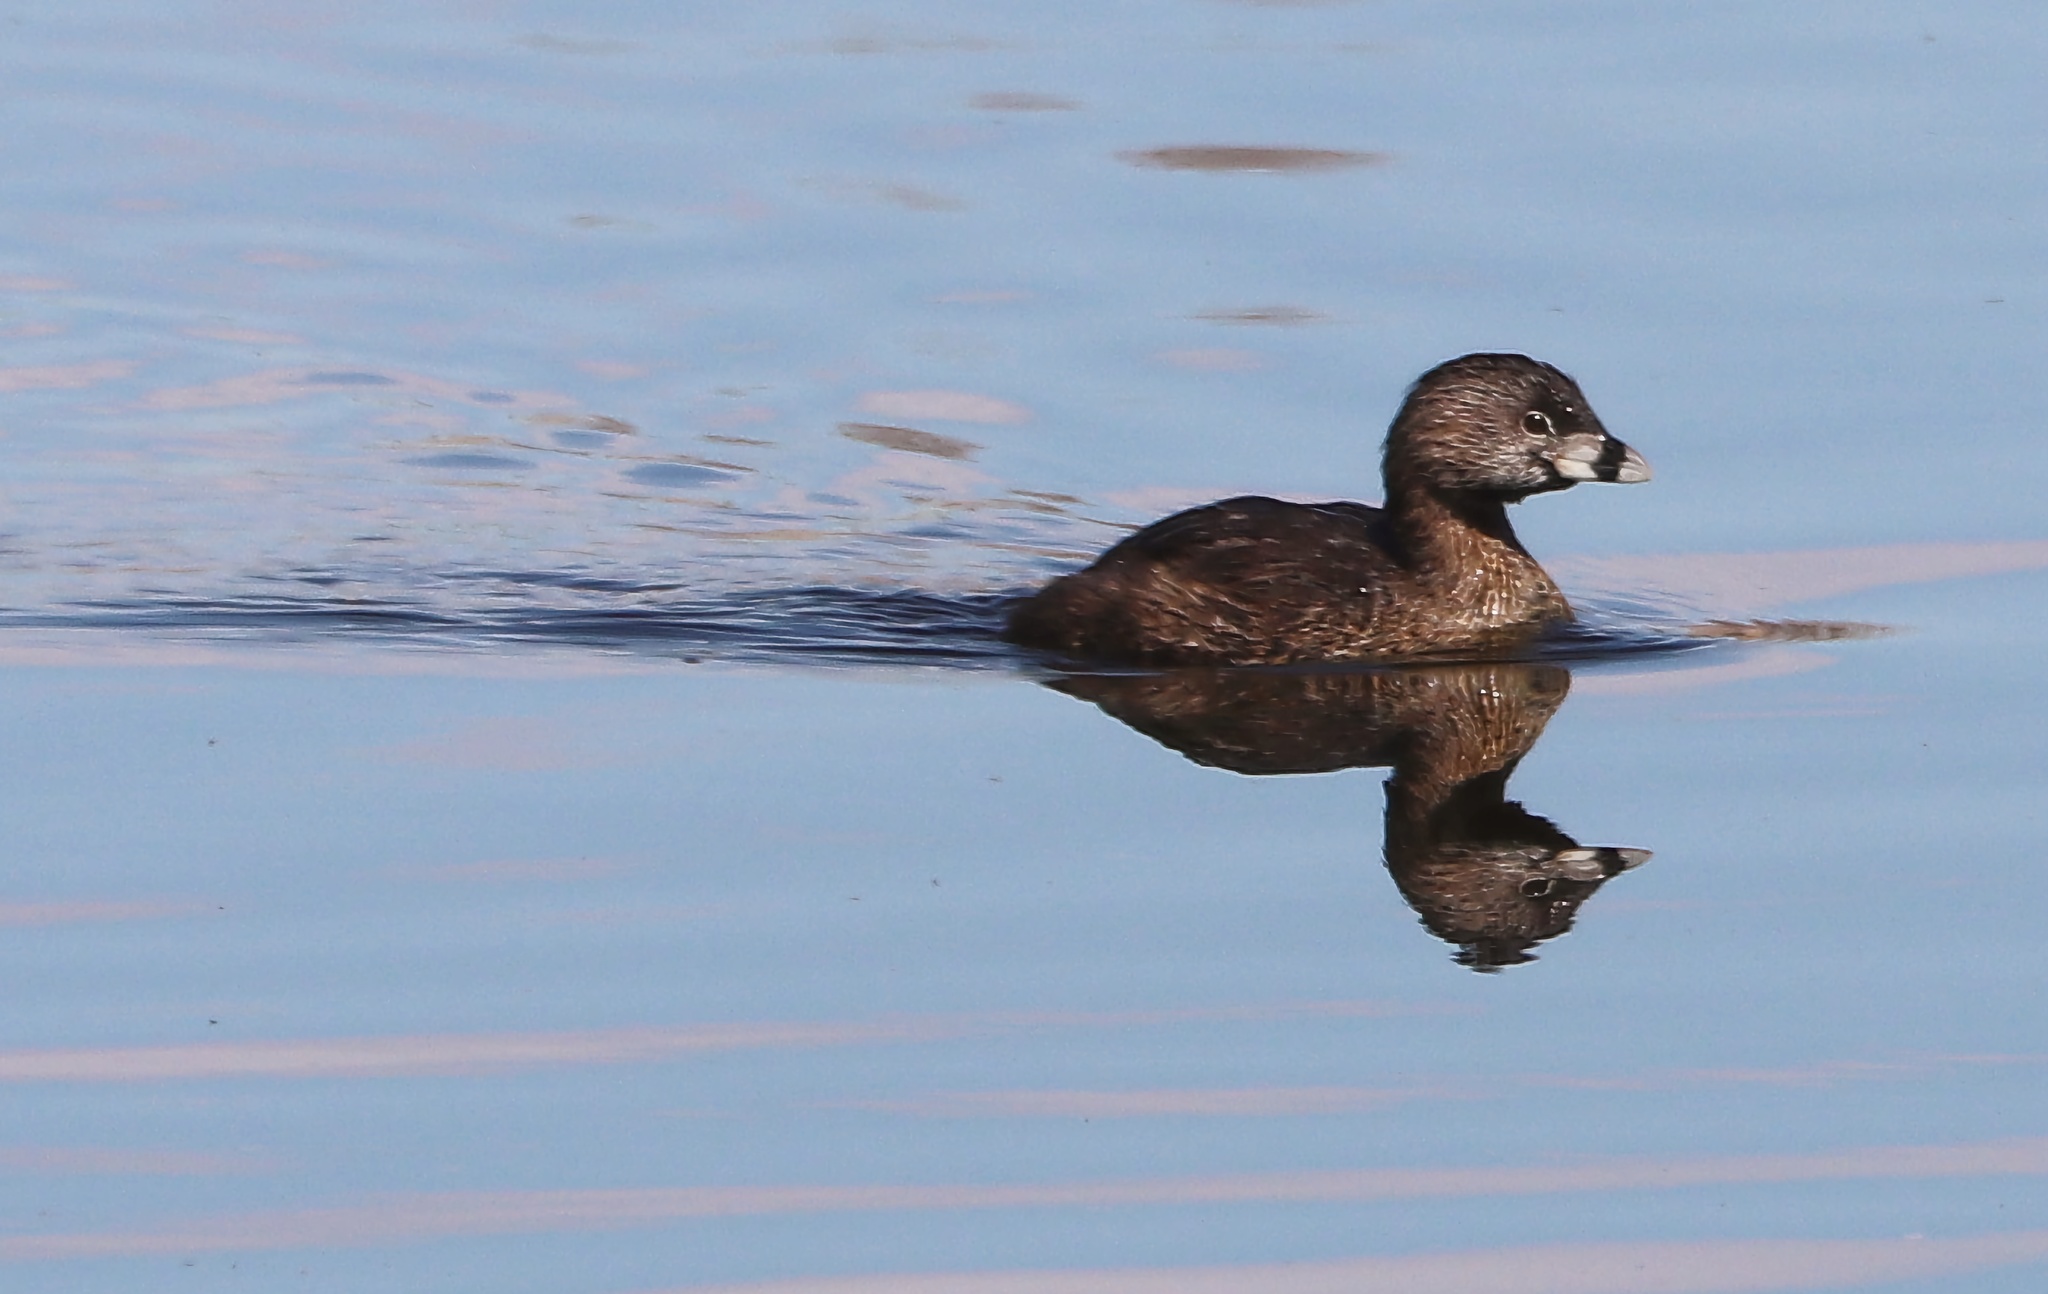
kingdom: Animalia
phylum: Chordata
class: Aves
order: Podicipediformes
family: Podicipedidae
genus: Podilymbus
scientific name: Podilymbus podiceps
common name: Pied-billed grebe
